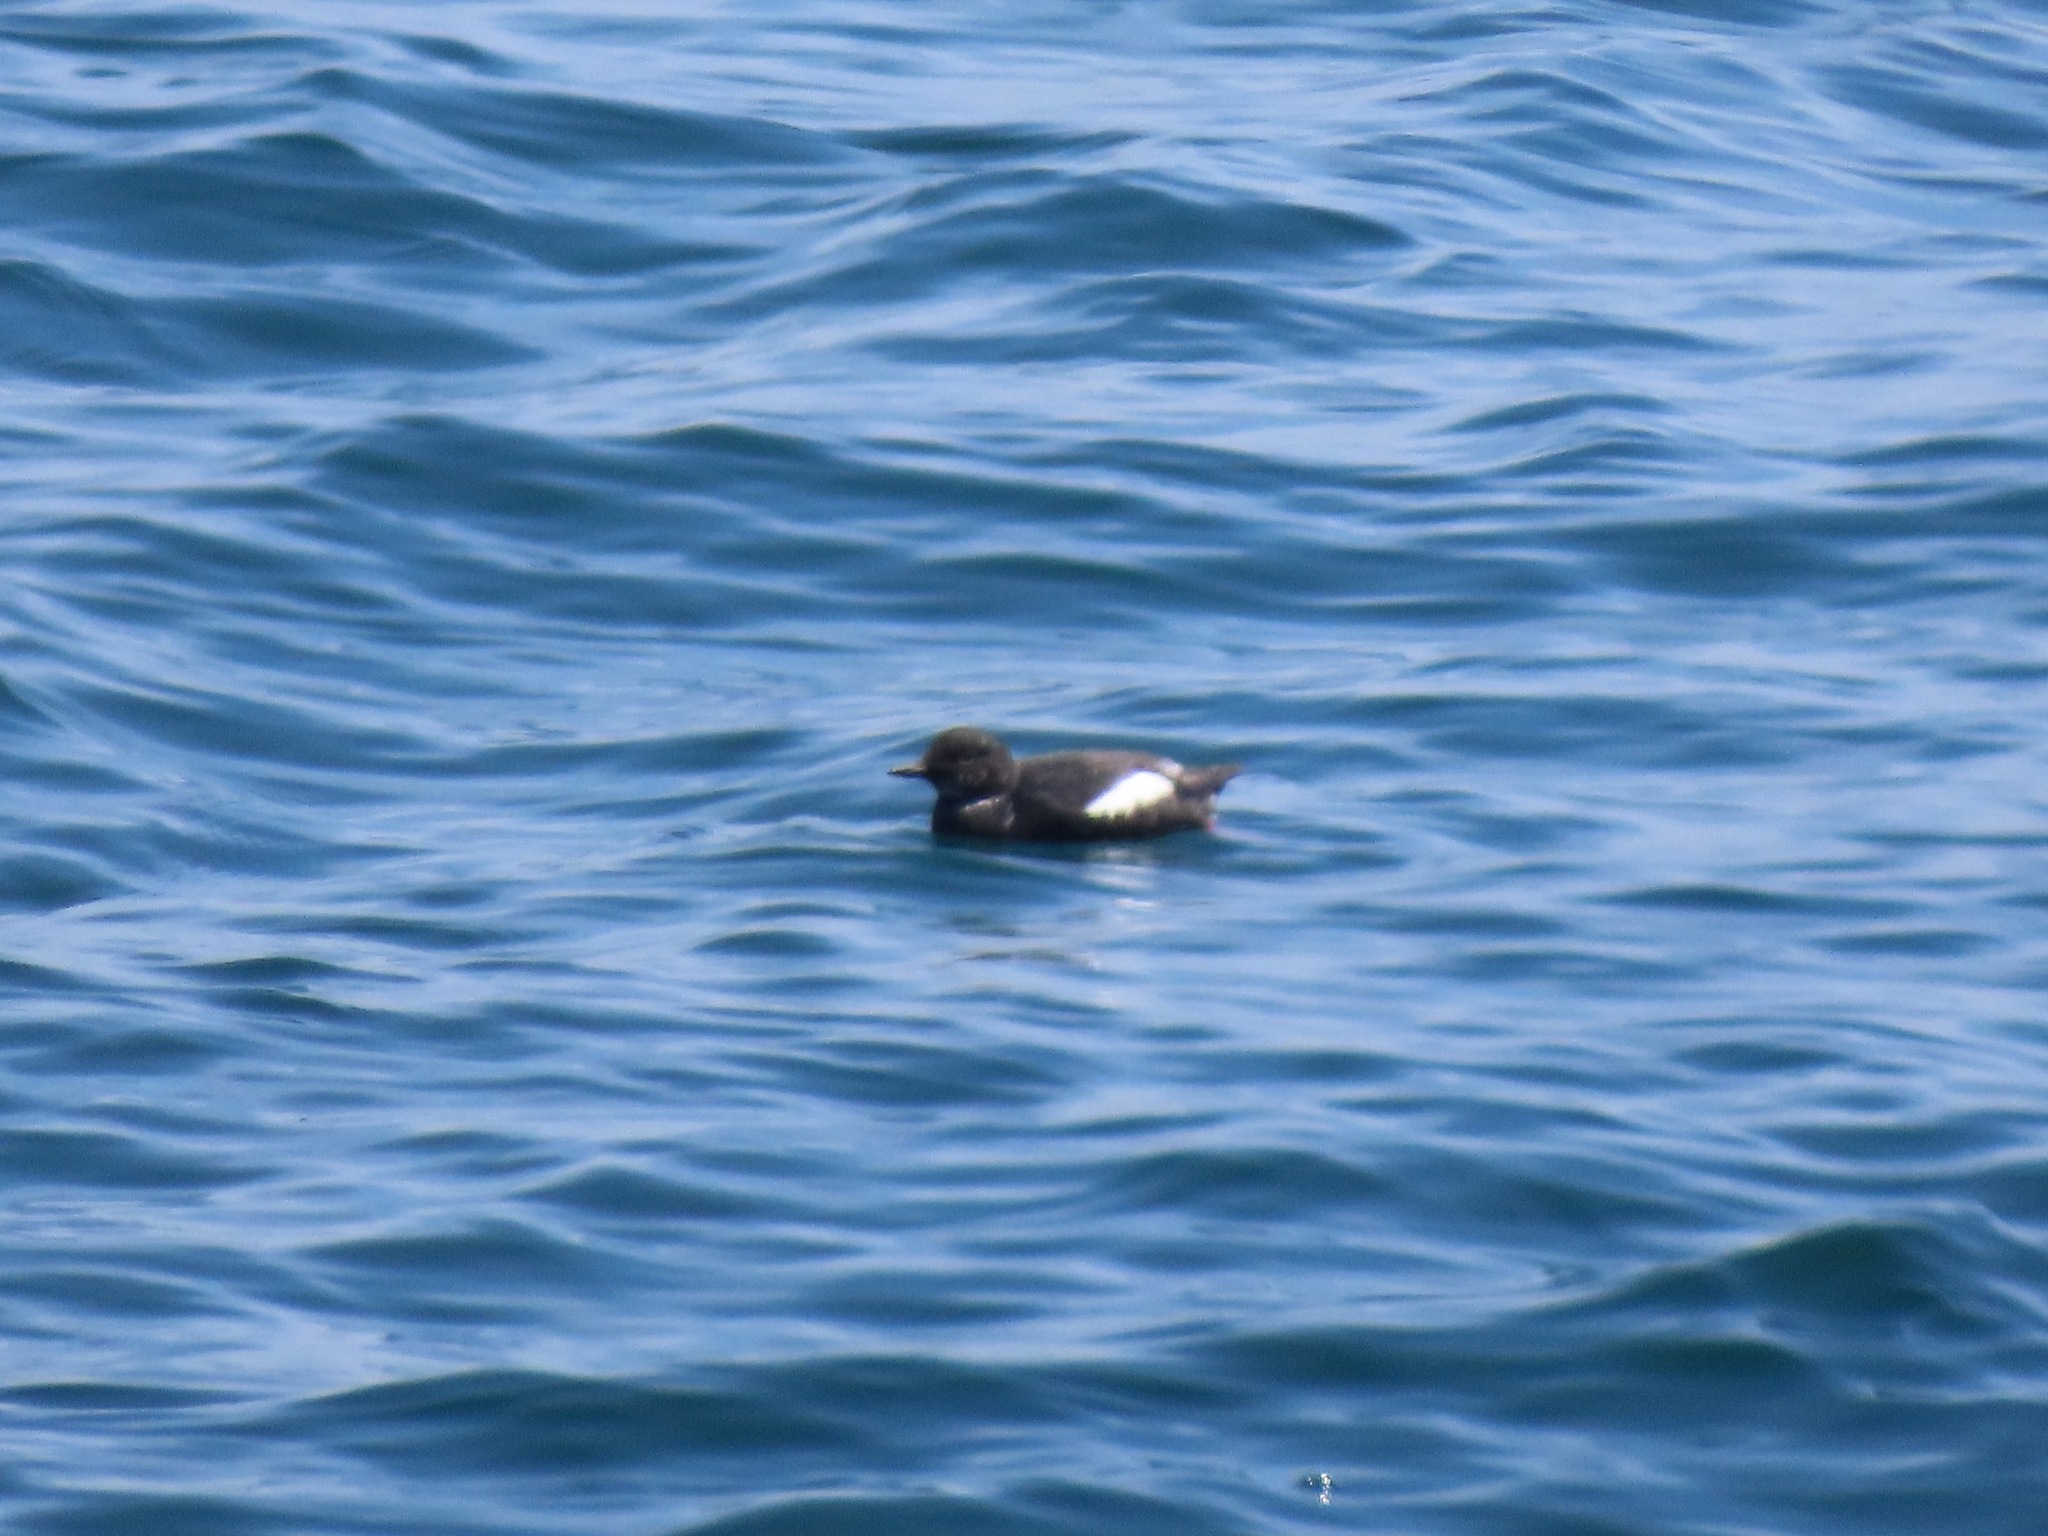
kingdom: Animalia
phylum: Chordata
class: Aves
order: Charadriiformes
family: Alcidae
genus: Cepphus
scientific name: Cepphus columba
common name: Pigeon guillemot
